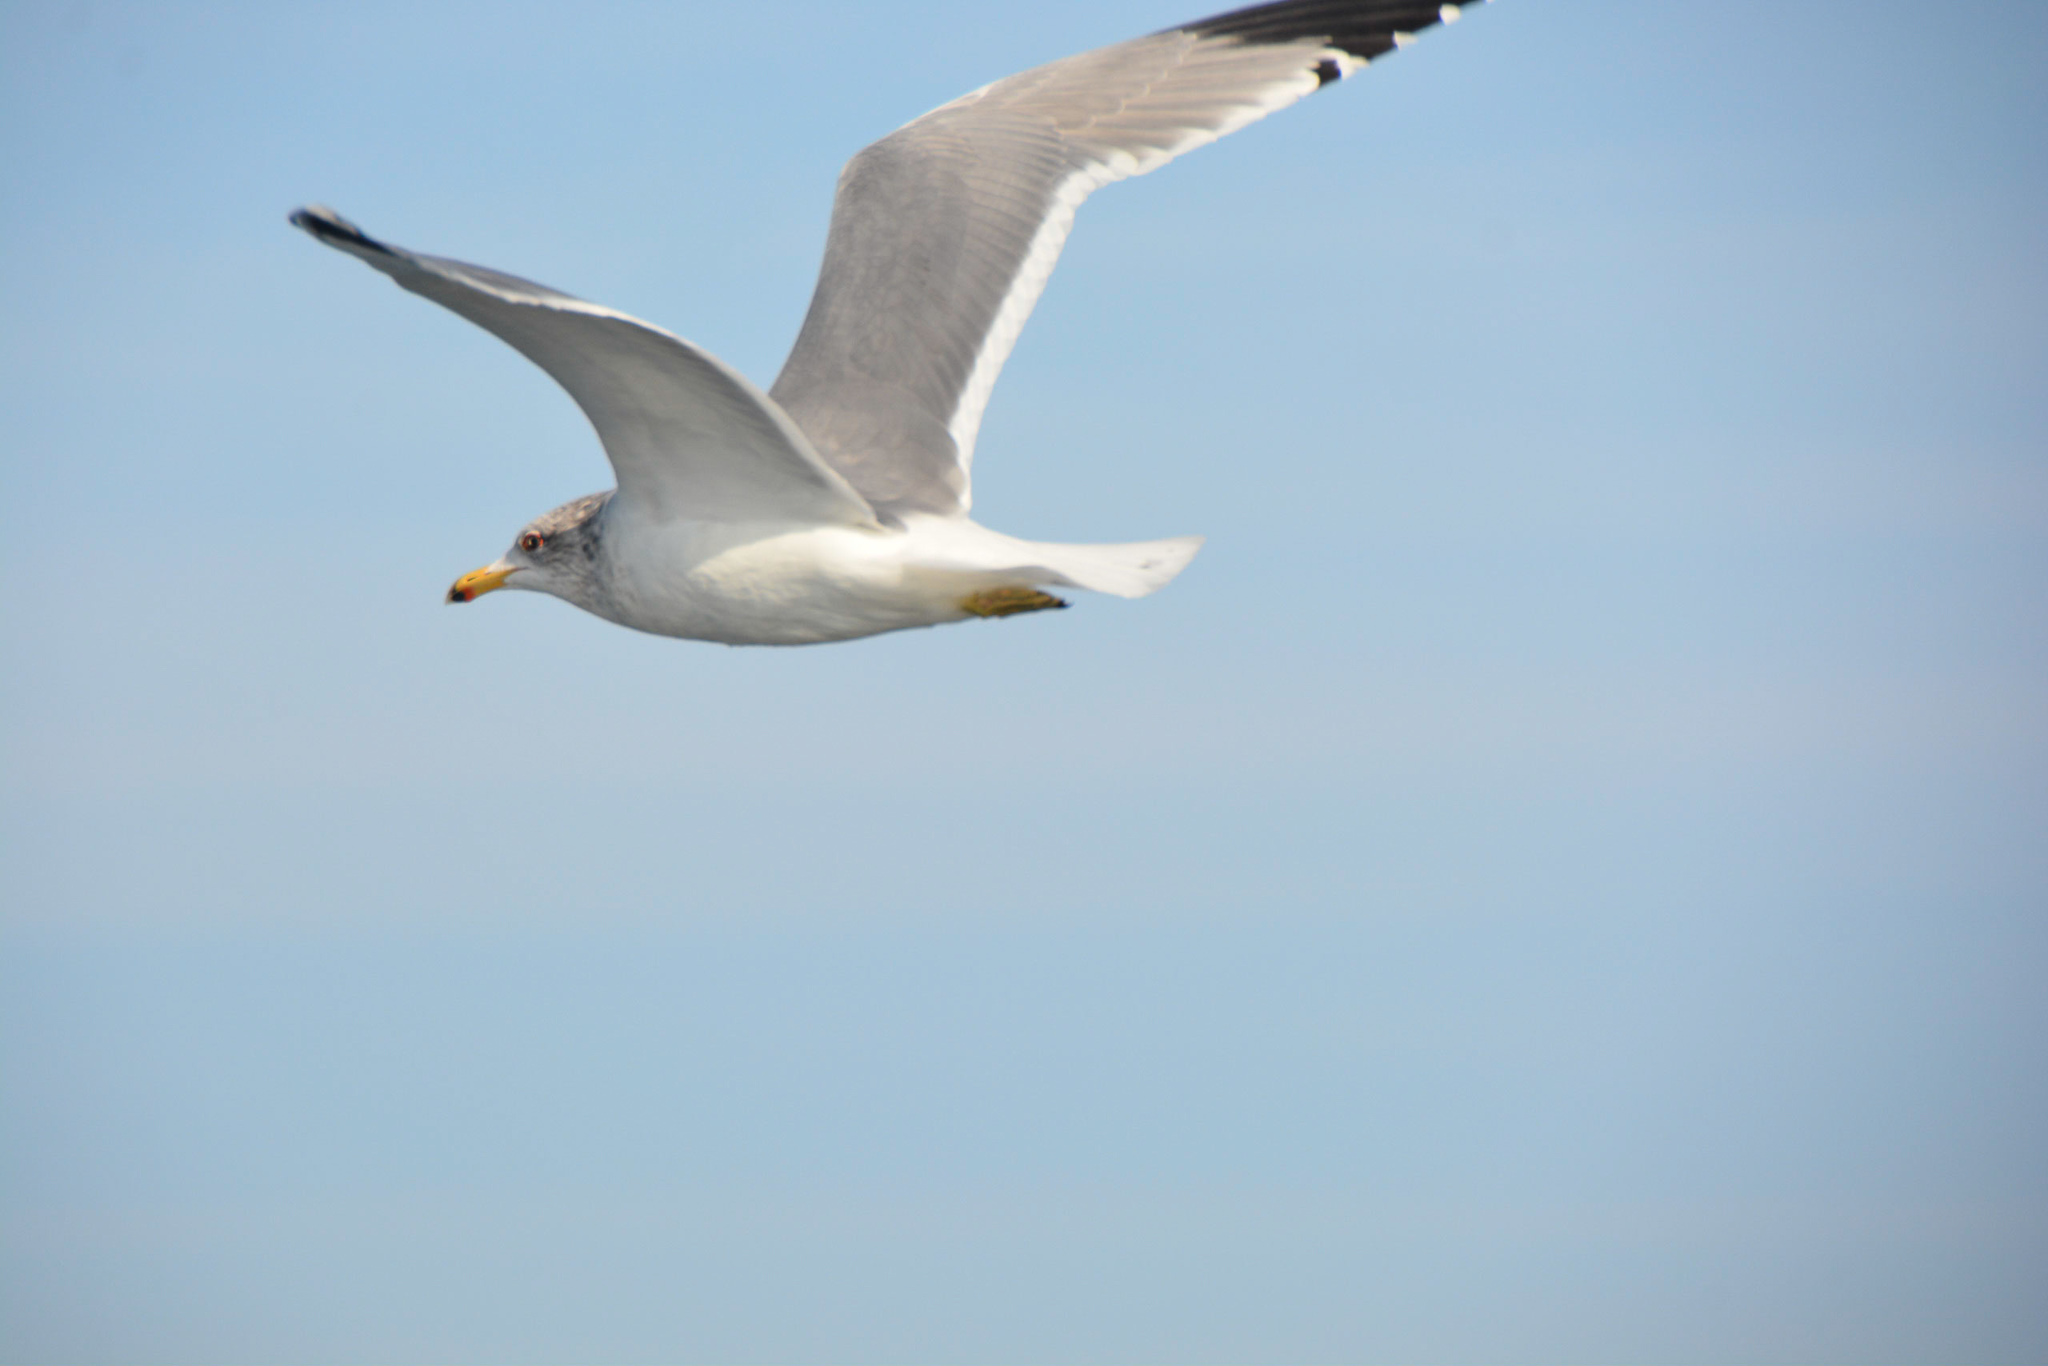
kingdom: Animalia
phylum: Chordata
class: Aves
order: Charadriiformes
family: Laridae
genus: Larus
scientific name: Larus californicus
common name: California gull
